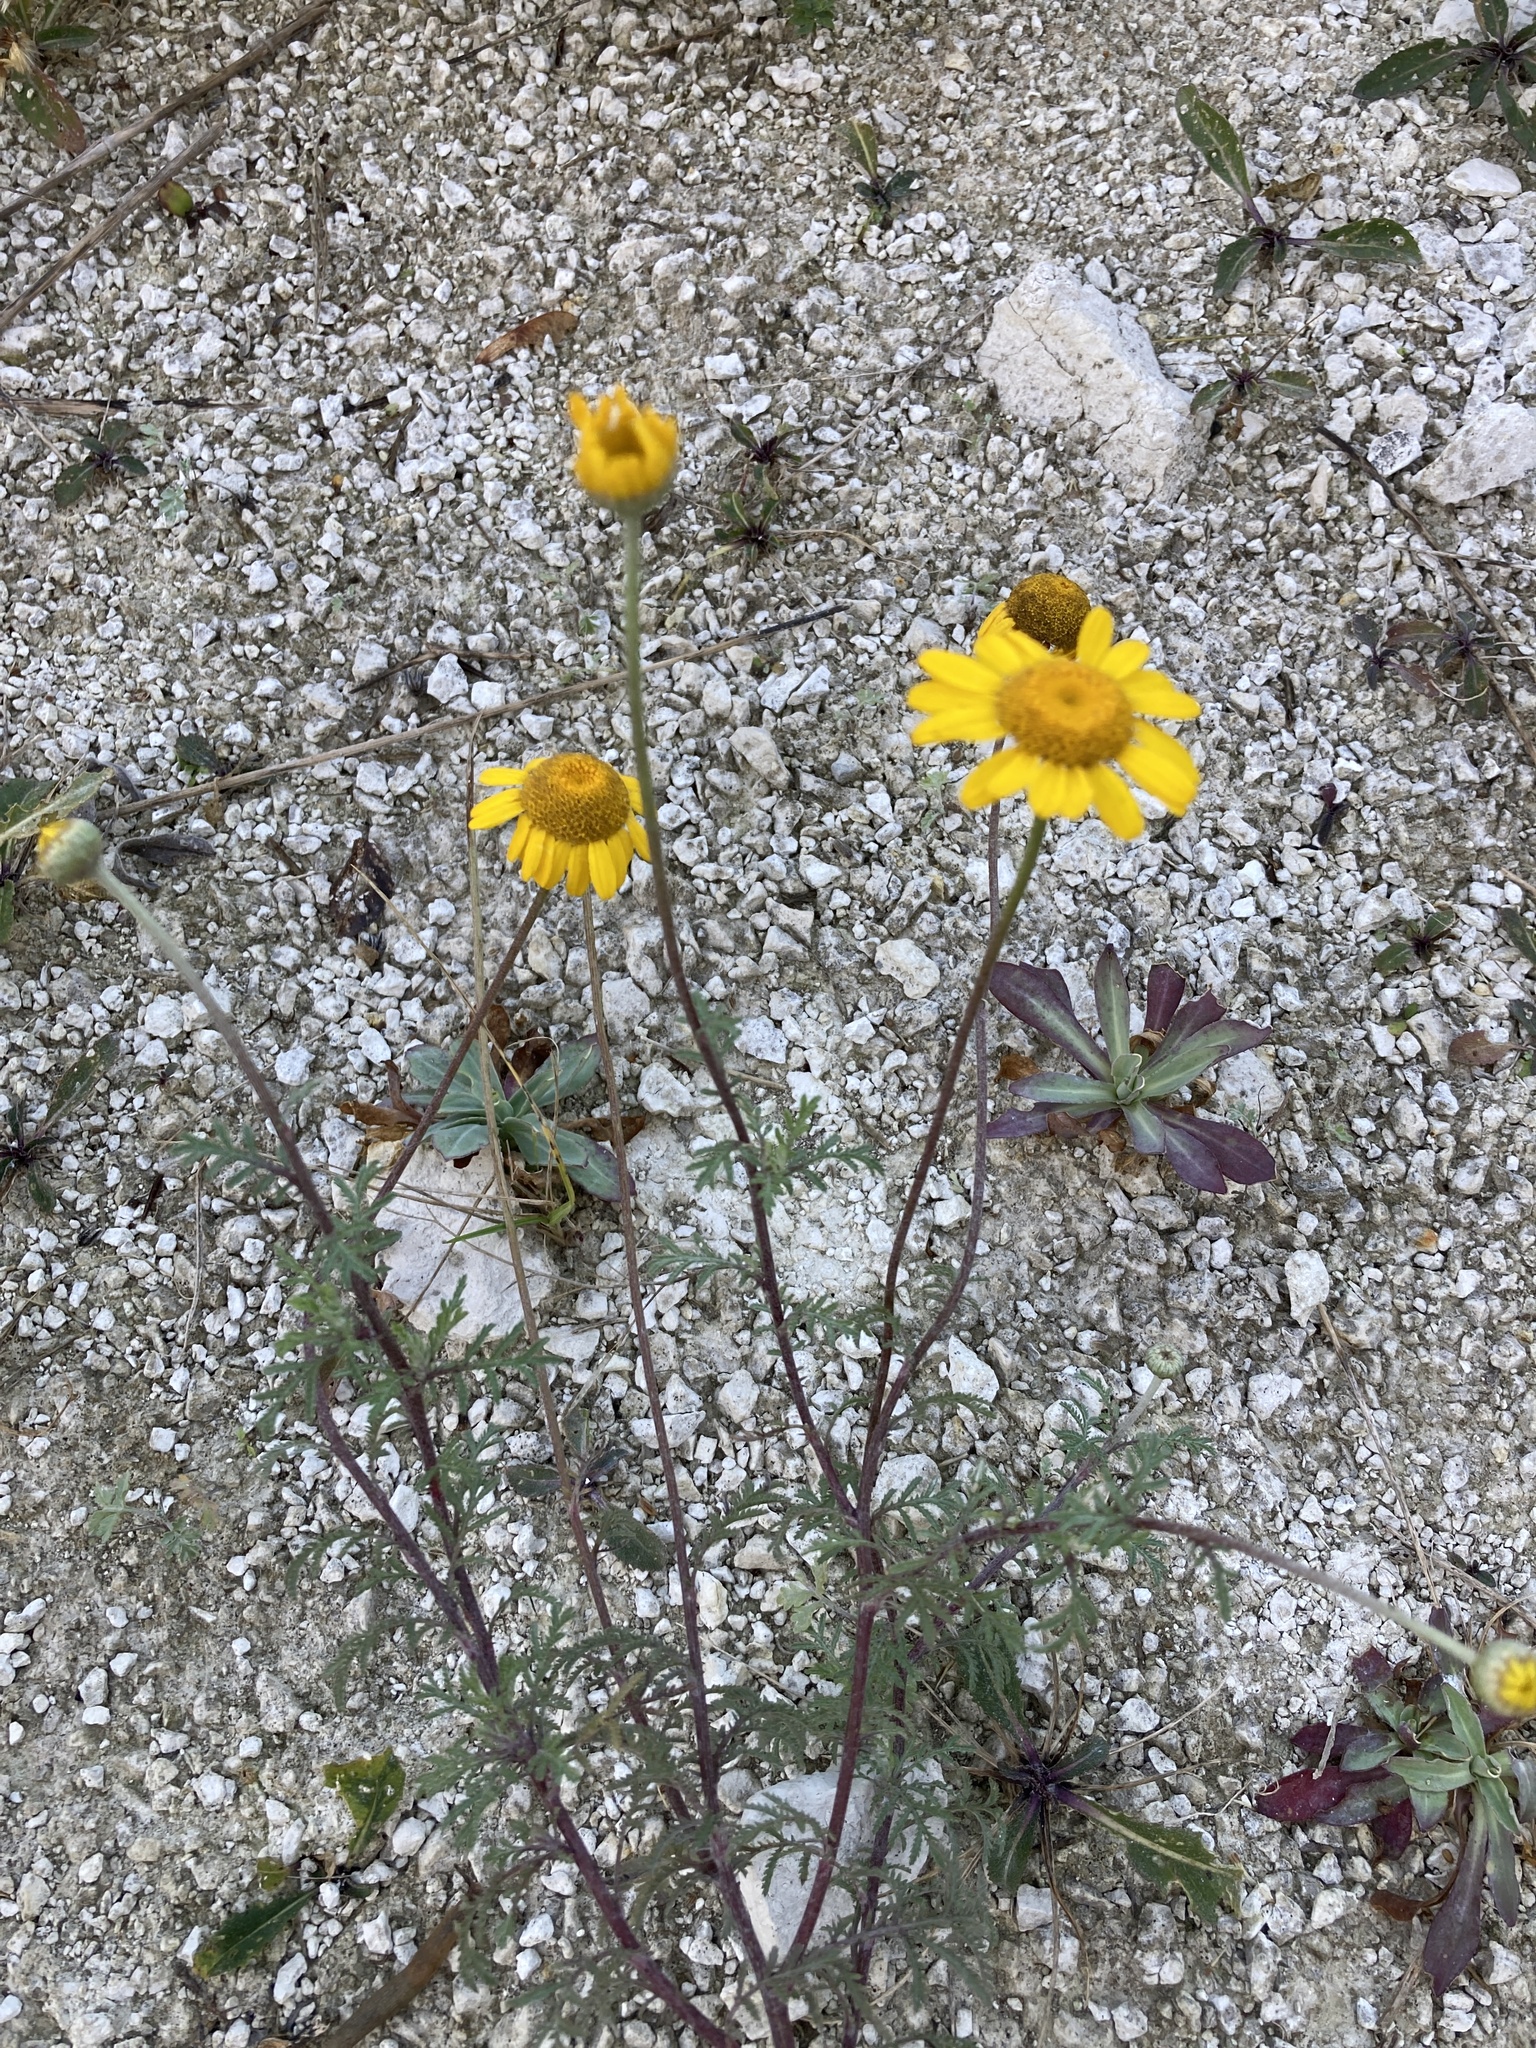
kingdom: Plantae
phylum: Tracheophyta
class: Magnoliopsida
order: Asterales
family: Asteraceae
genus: Cota
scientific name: Cota tinctoria
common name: Golden chamomile
